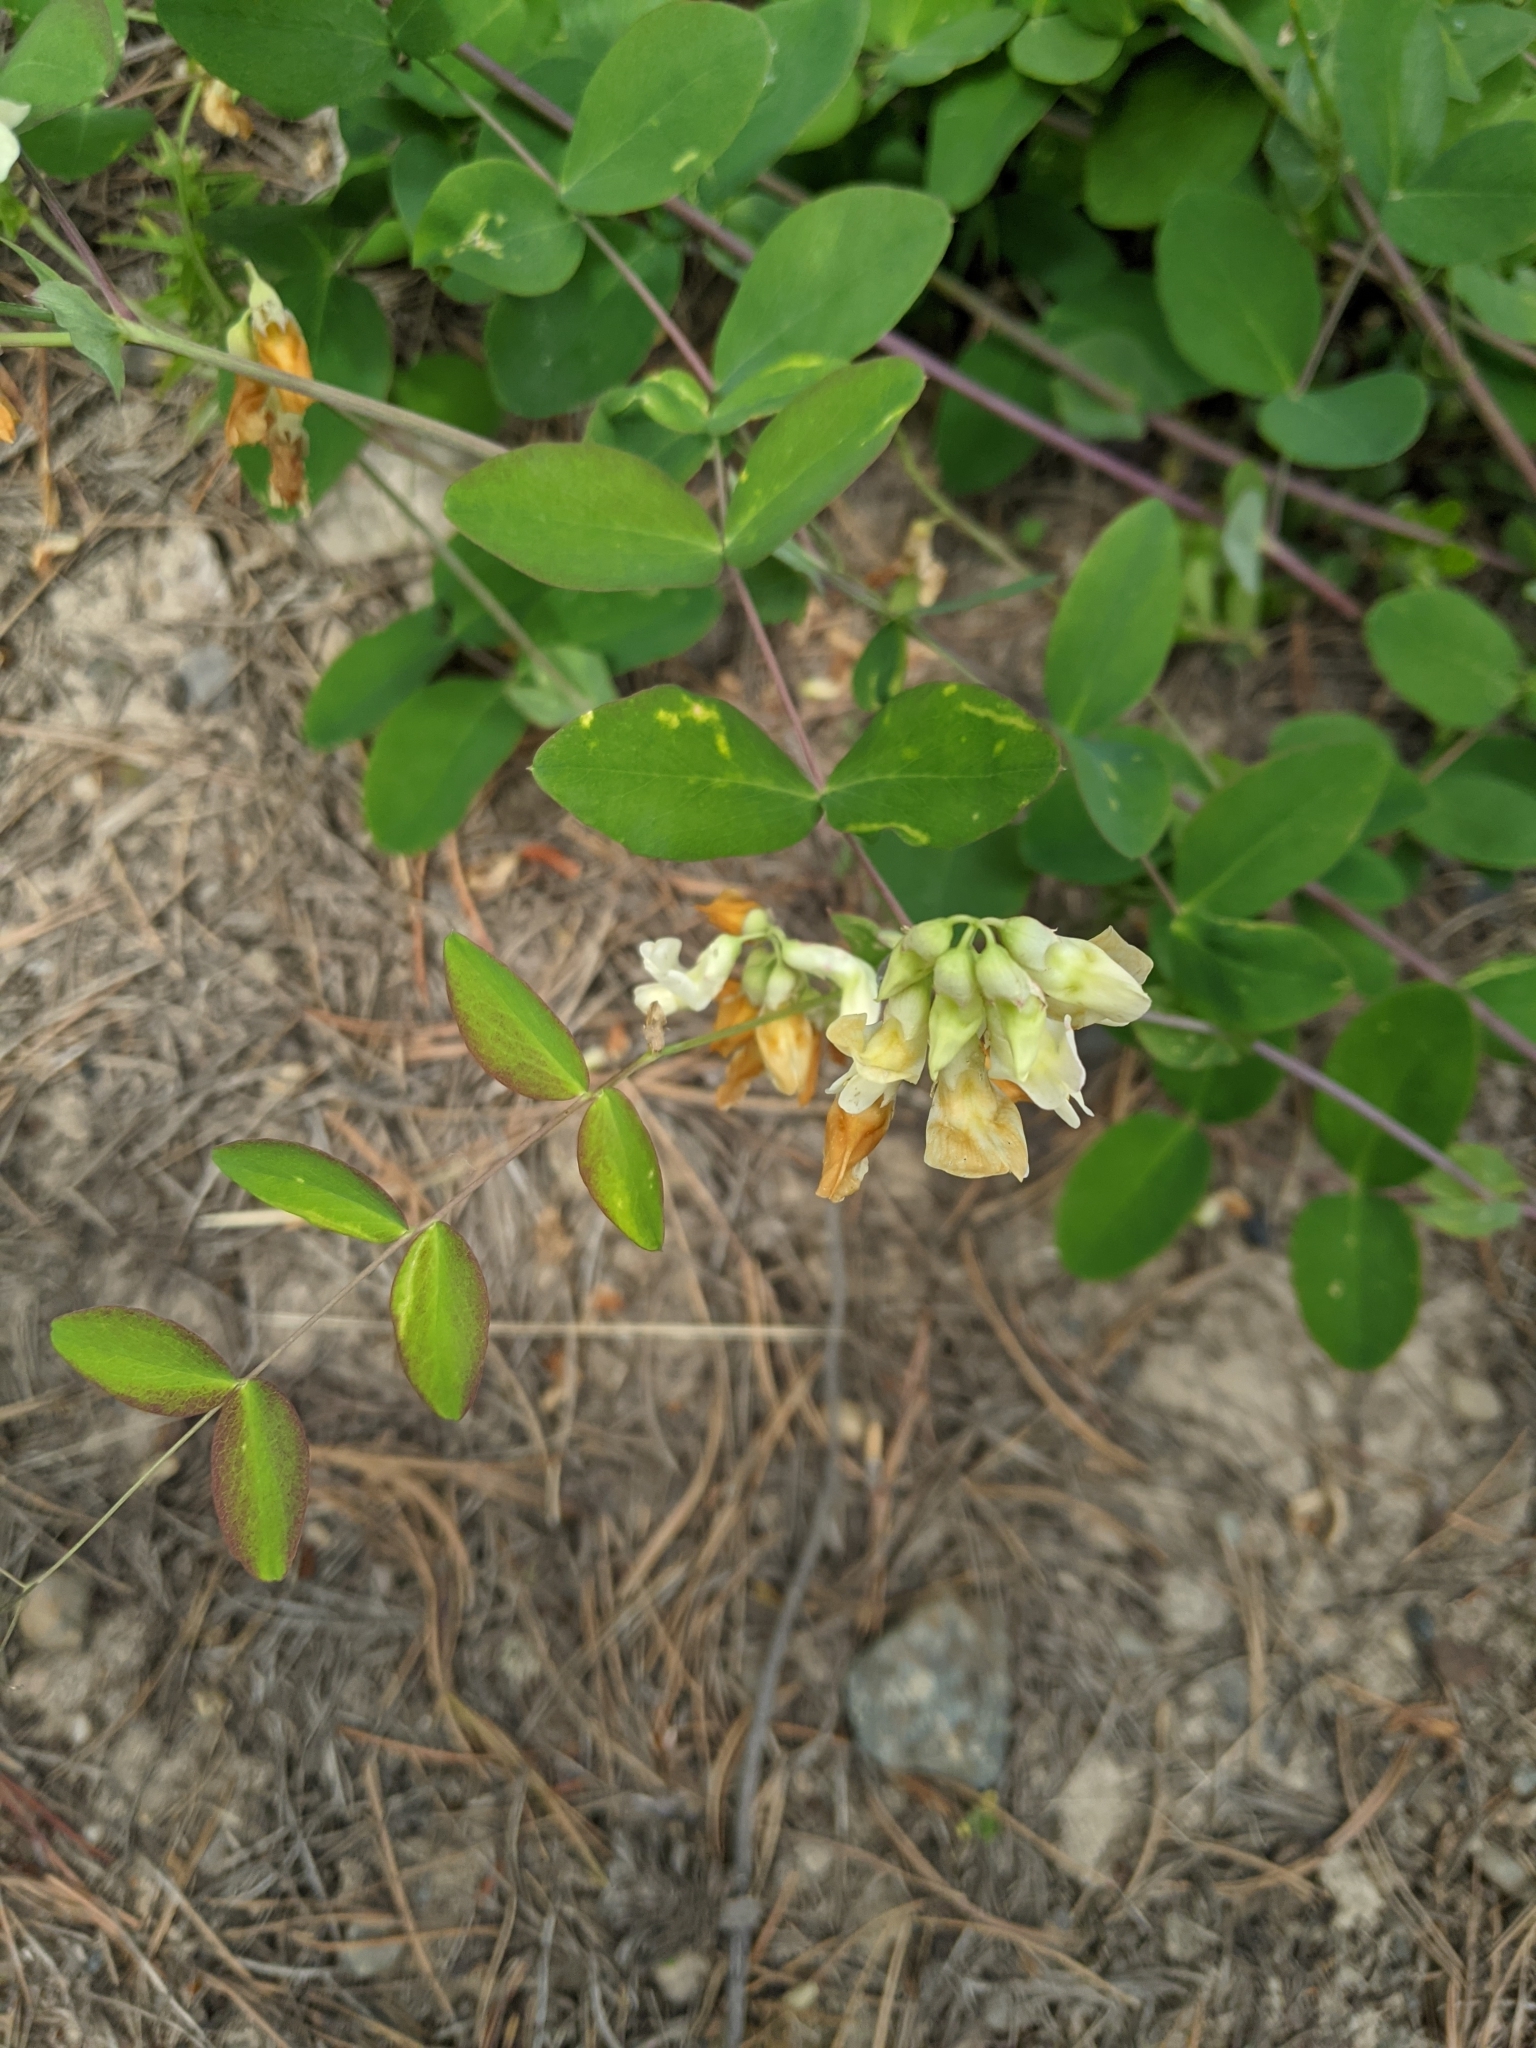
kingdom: Plantae
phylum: Tracheophyta
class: Magnoliopsida
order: Fabales
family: Fabaceae
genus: Lathyrus
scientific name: Lathyrus ochroleucus
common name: Pale vetchling
